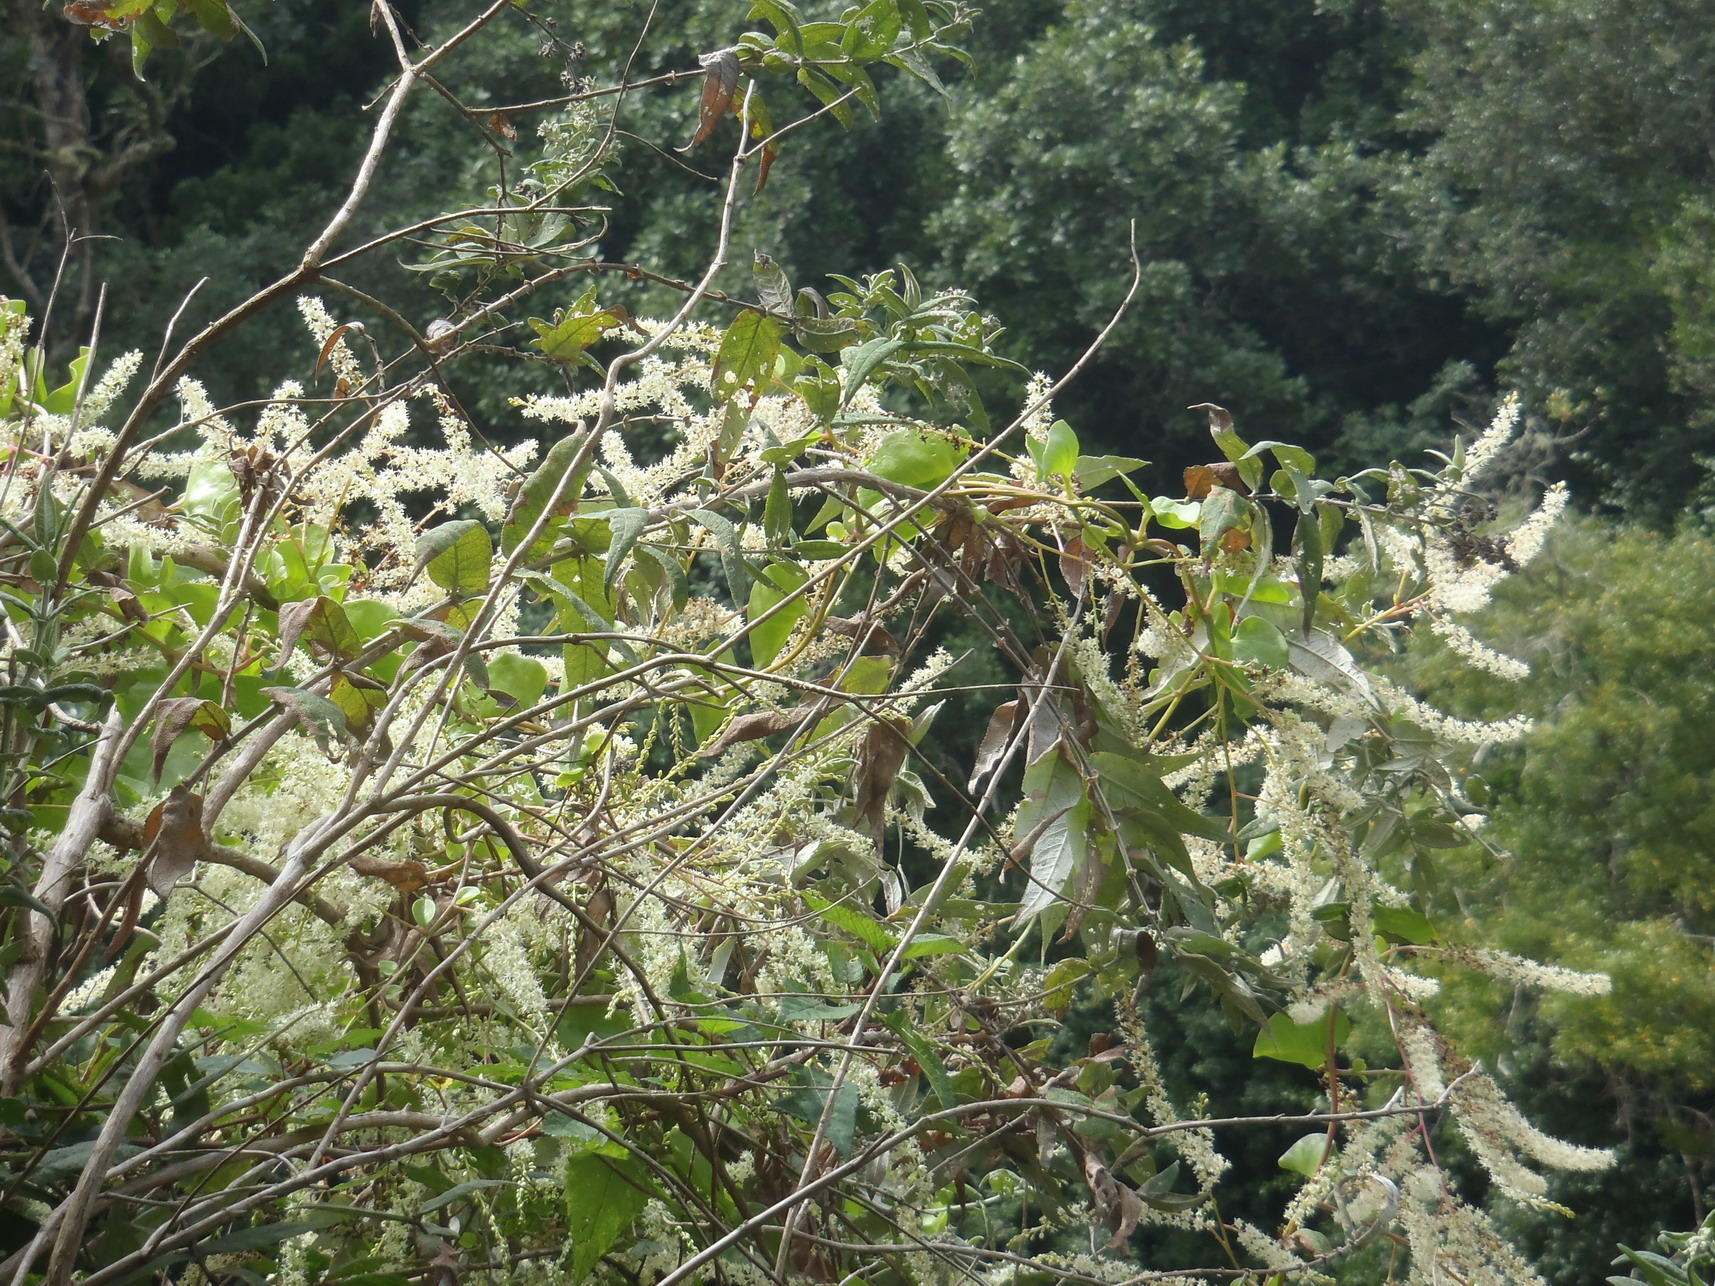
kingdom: Plantae
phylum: Tracheophyta
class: Magnoliopsida
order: Caryophyllales
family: Basellaceae
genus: Anredera
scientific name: Anredera cordifolia
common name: Heartleaf madeiravine
